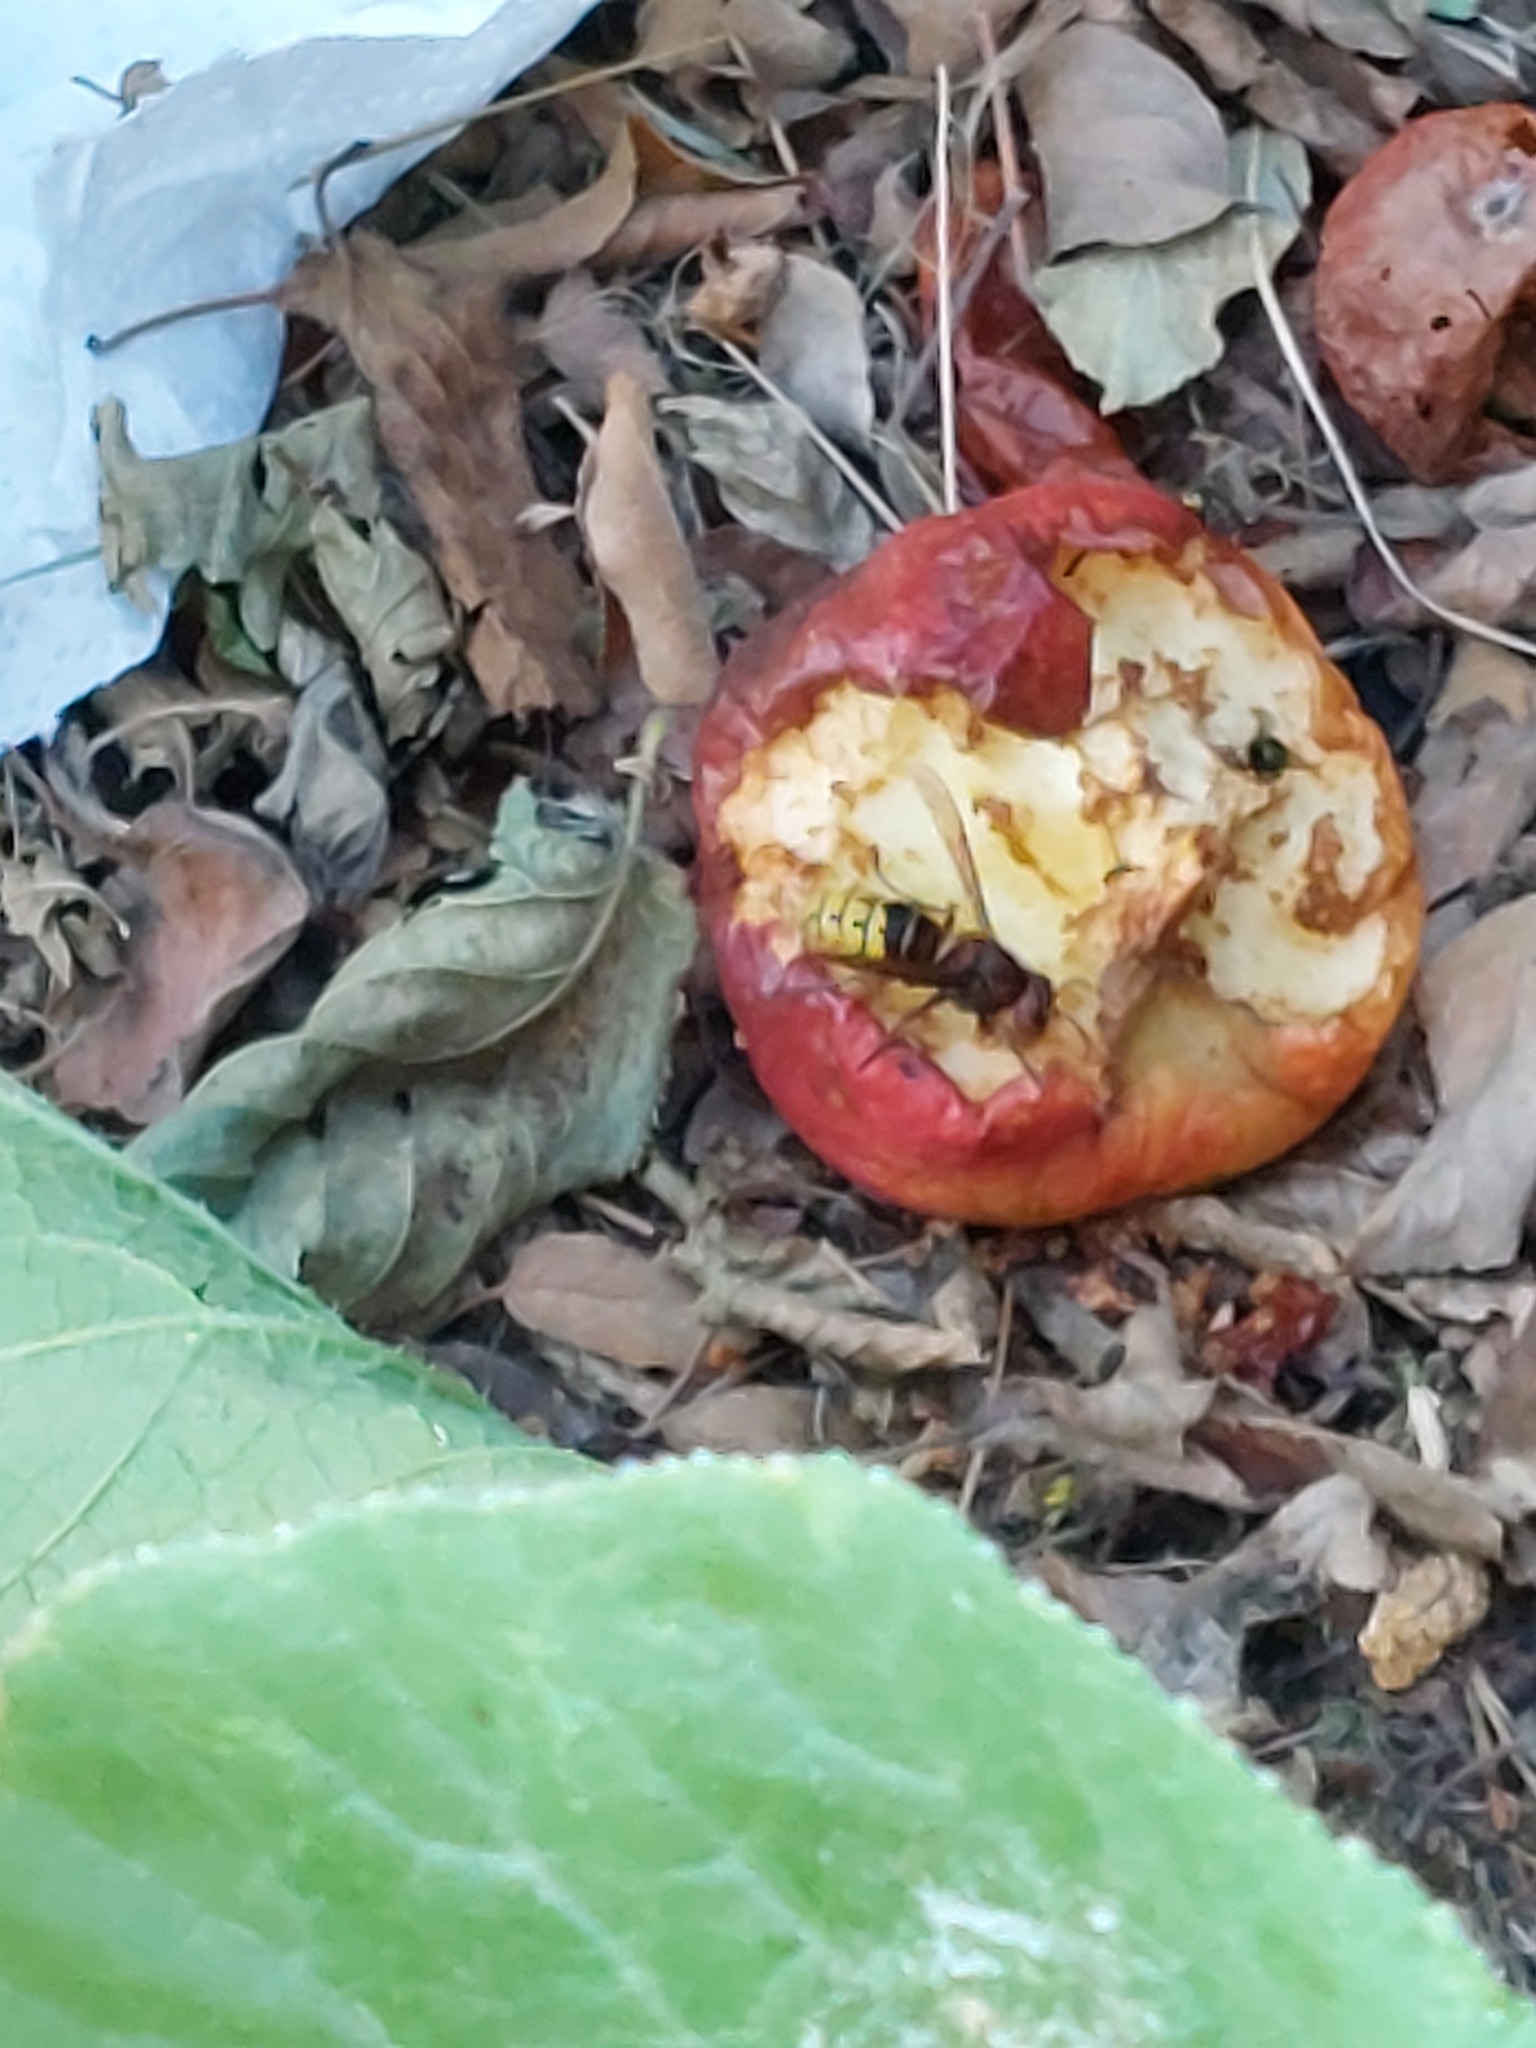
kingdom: Animalia
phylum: Arthropoda
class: Insecta
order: Hymenoptera
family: Vespidae
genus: Vespa
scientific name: Vespa crabro
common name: Hornet
